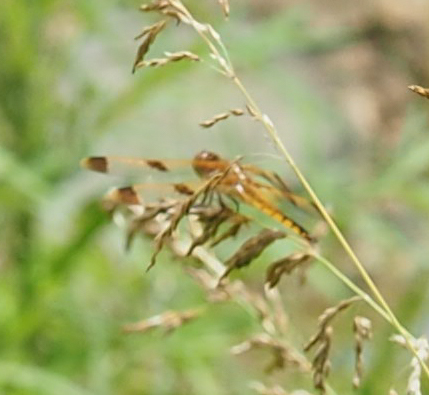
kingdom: Animalia
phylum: Arthropoda
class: Insecta
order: Odonata
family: Libellulidae
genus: Libellula
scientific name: Libellula semifasciata
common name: Painted skimmer
